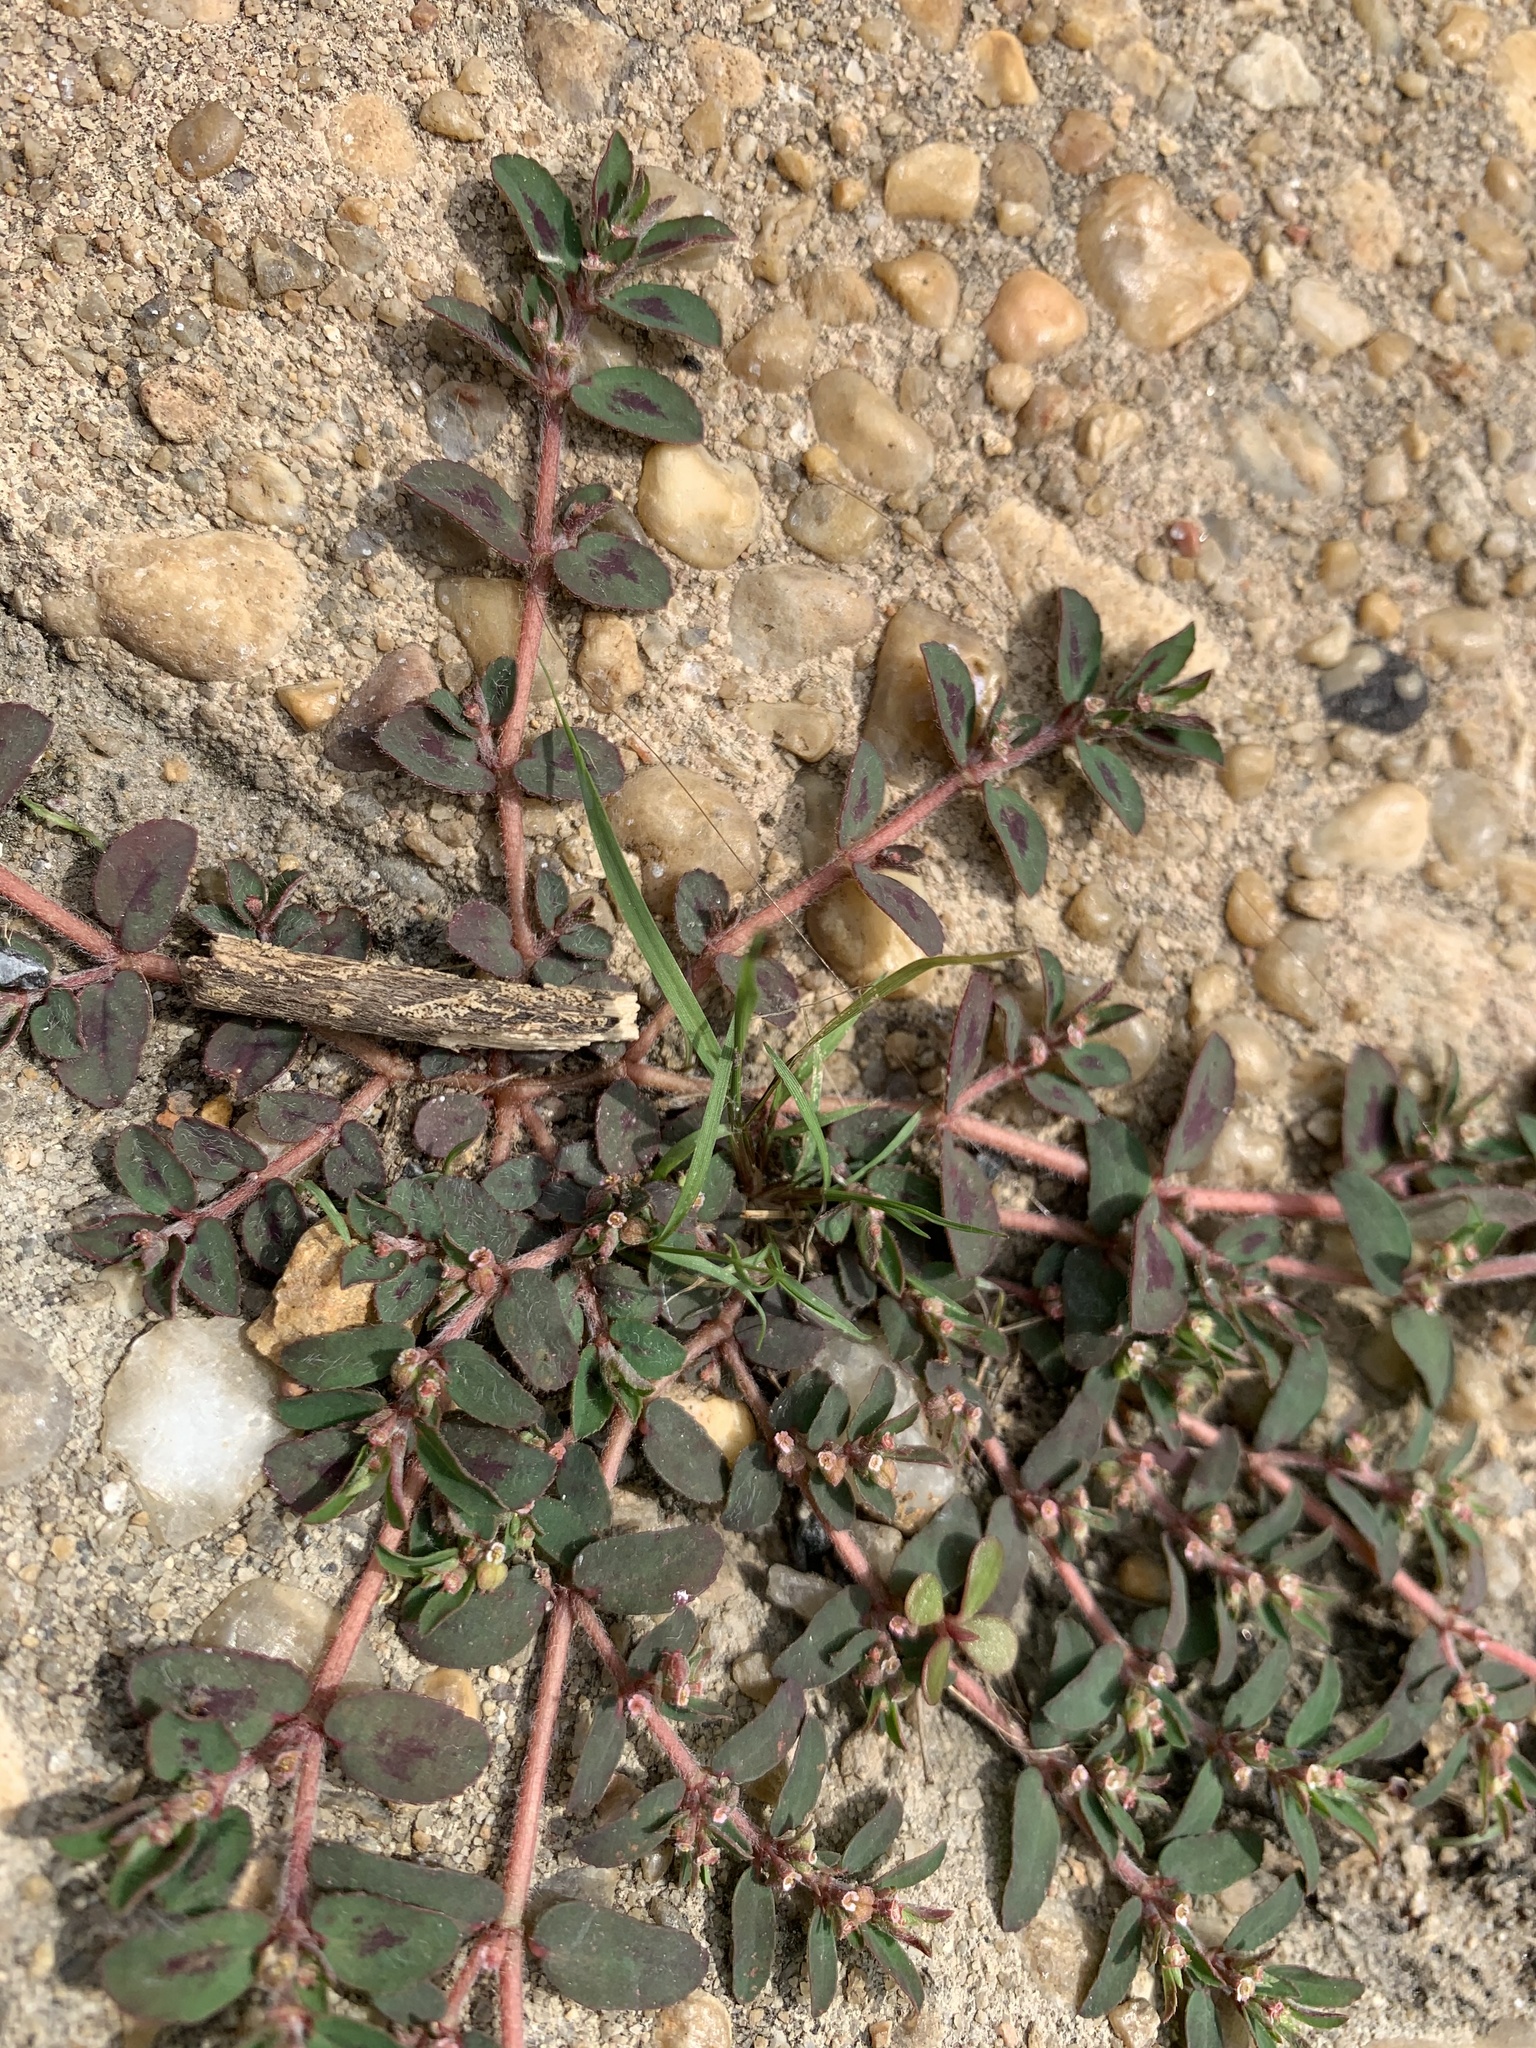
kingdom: Plantae
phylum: Tracheophyta
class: Magnoliopsida
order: Malpighiales
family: Euphorbiaceae
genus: Euphorbia
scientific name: Euphorbia maculata
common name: Spotted spurge
